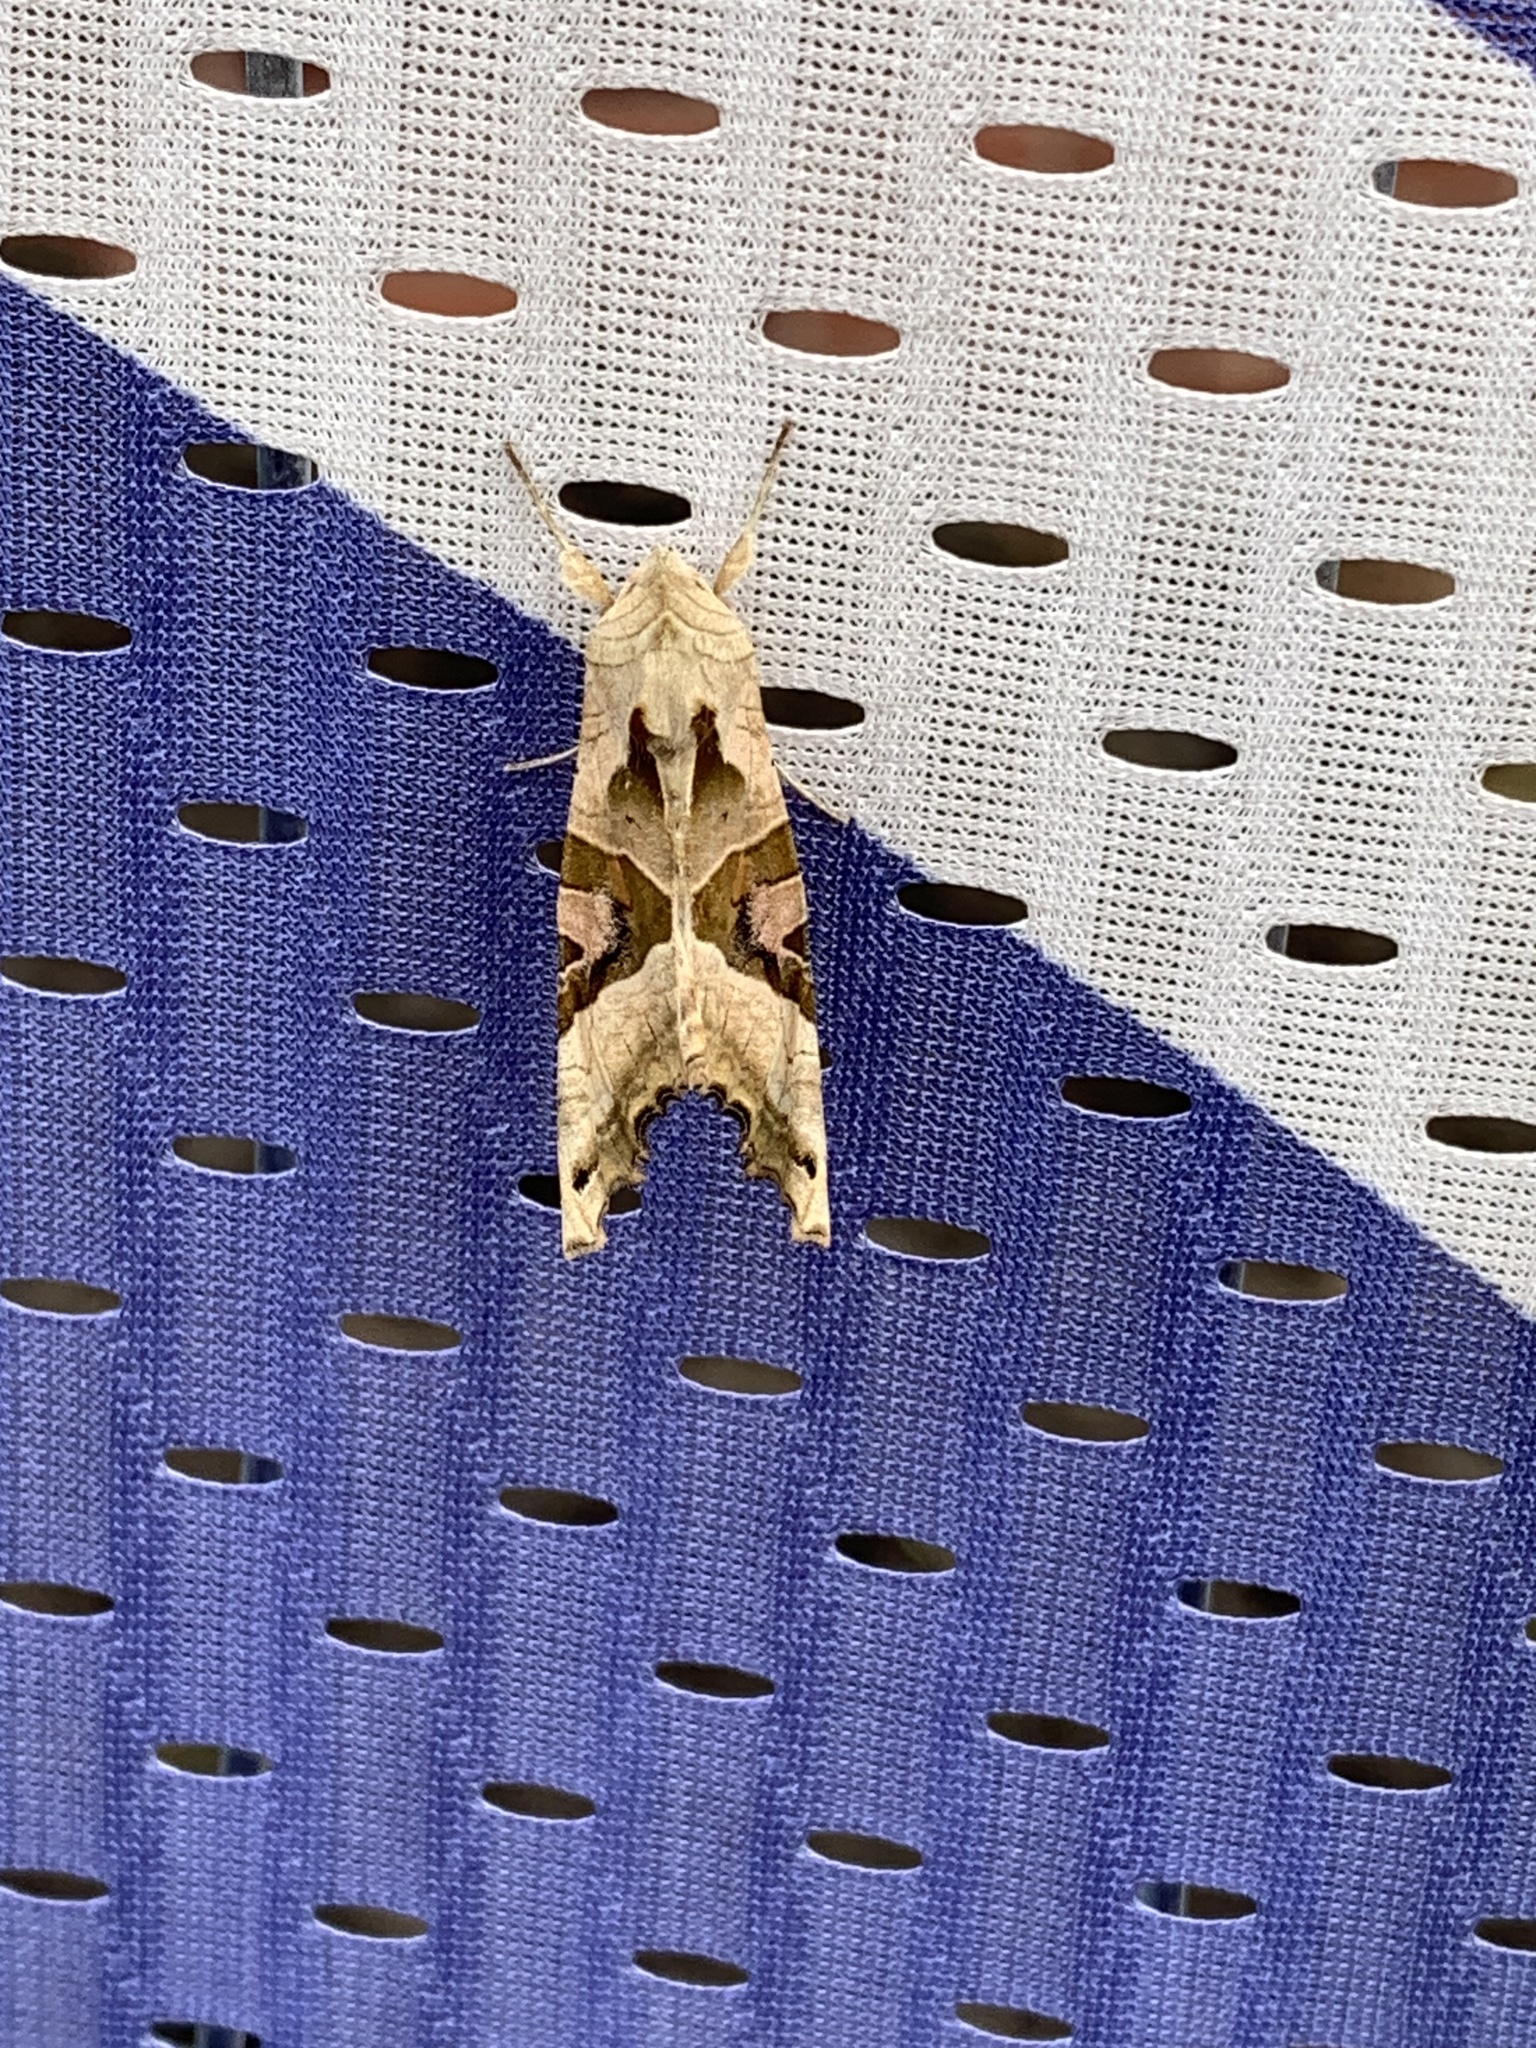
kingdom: Animalia
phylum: Arthropoda
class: Insecta
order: Lepidoptera
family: Noctuidae
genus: Phlogophora
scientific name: Phlogophora meticulosa
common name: Angle shades
